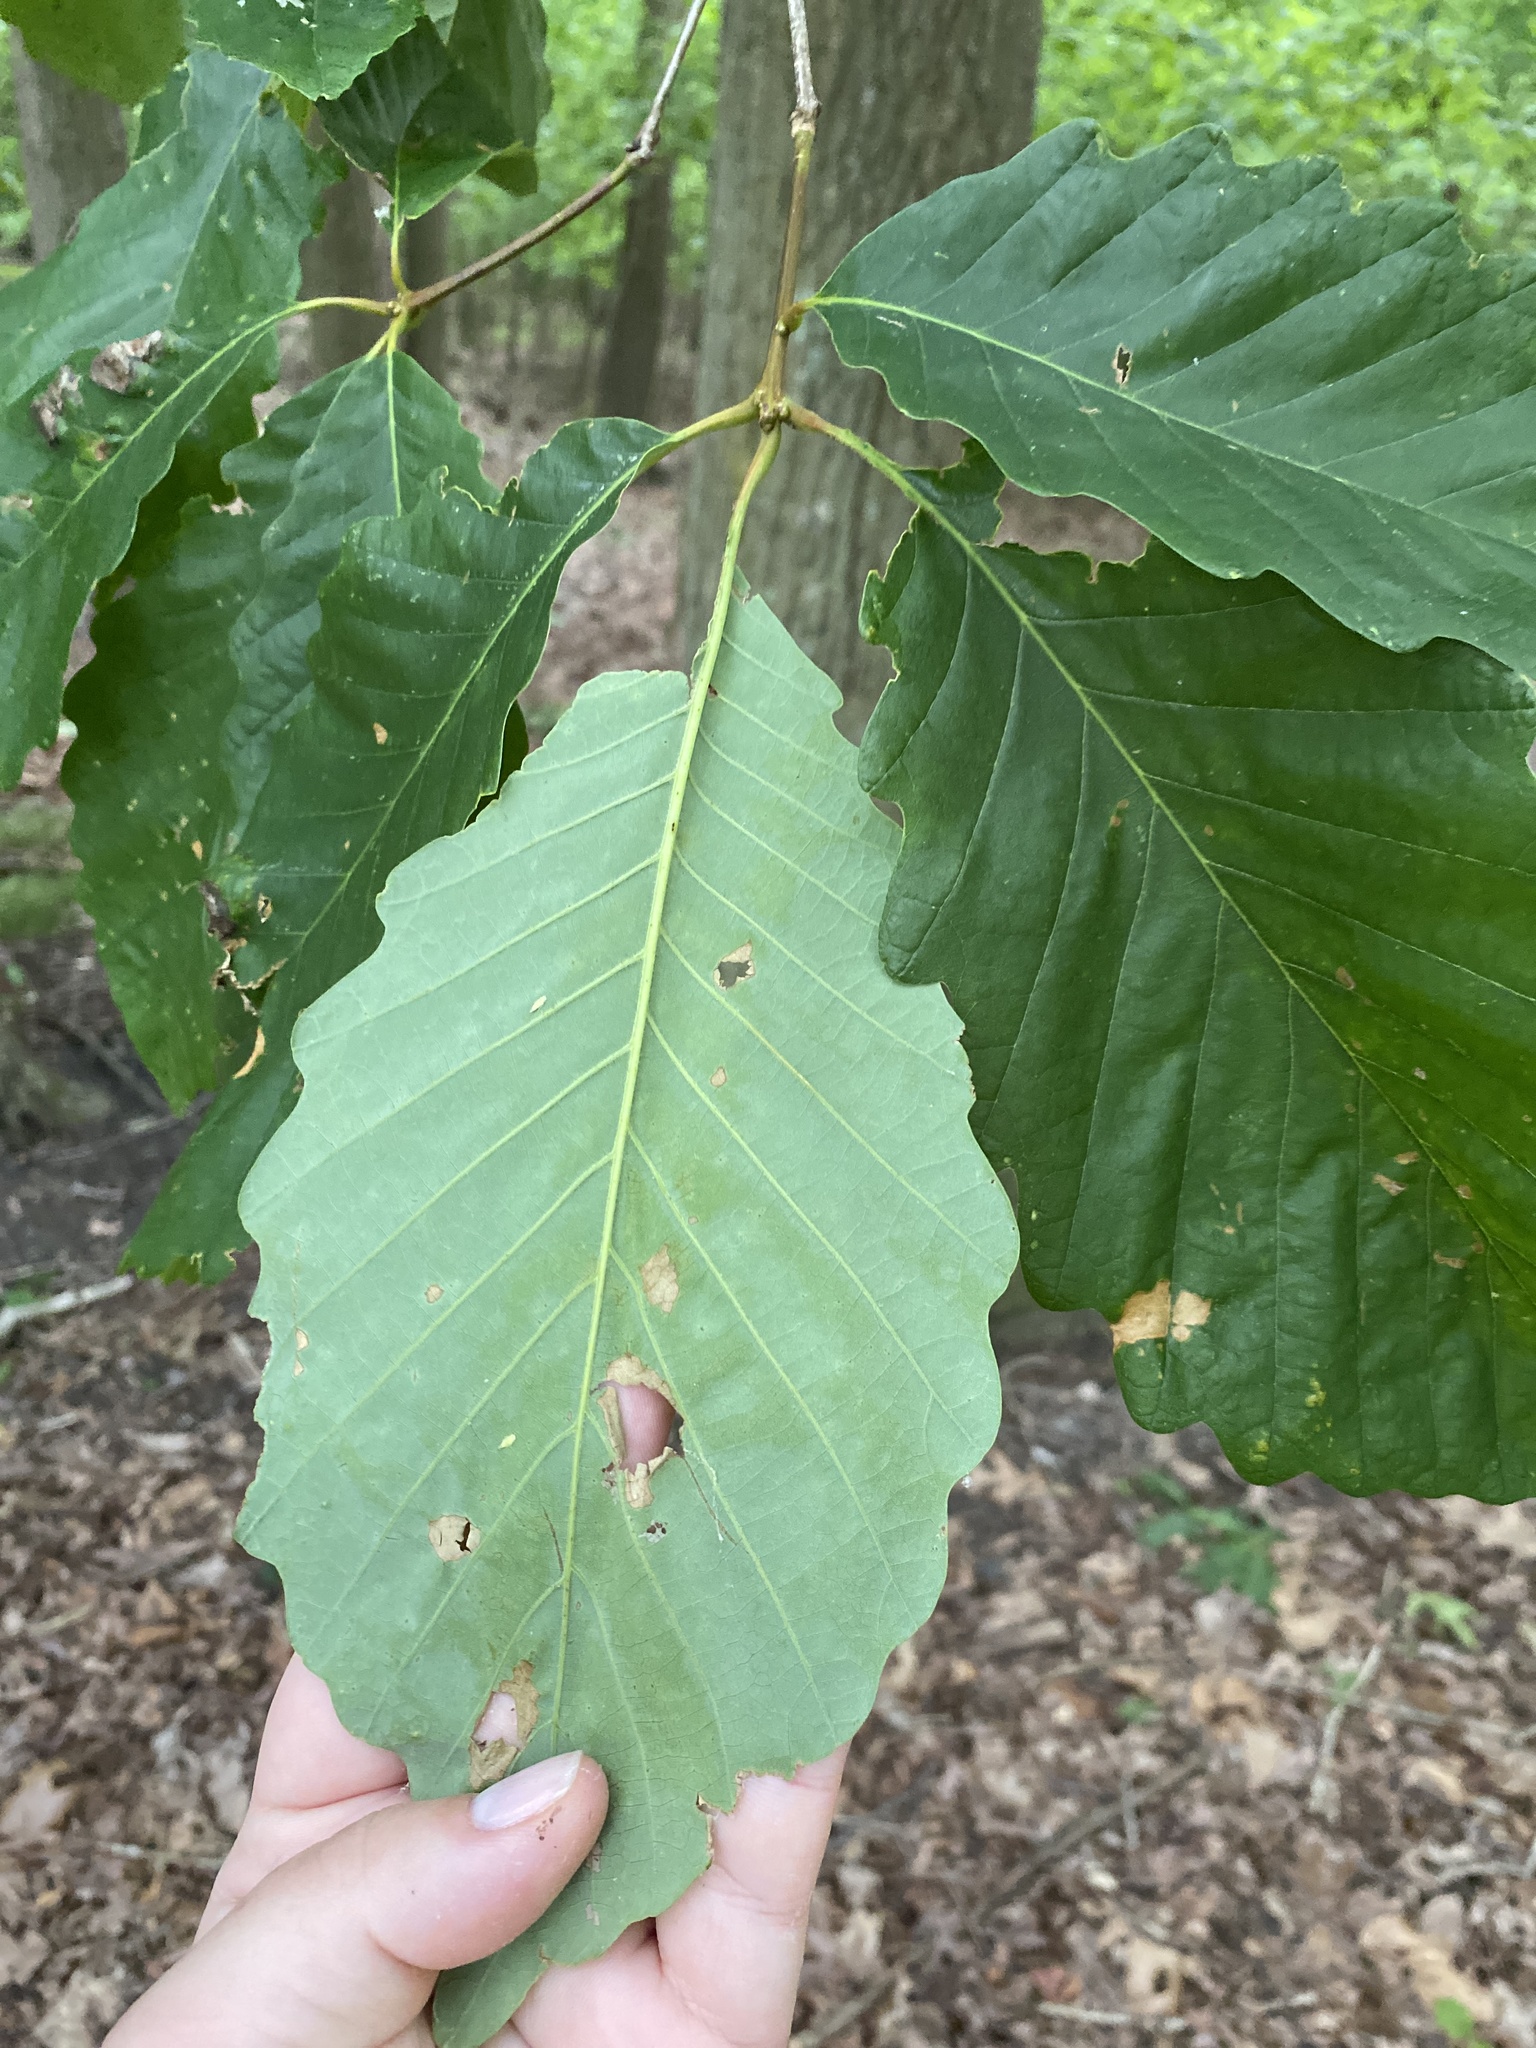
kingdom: Plantae
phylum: Tracheophyta
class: Magnoliopsida
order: Fagales
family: Fagaceae
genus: Quercus
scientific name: Quercus montana
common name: Chestnut oak
